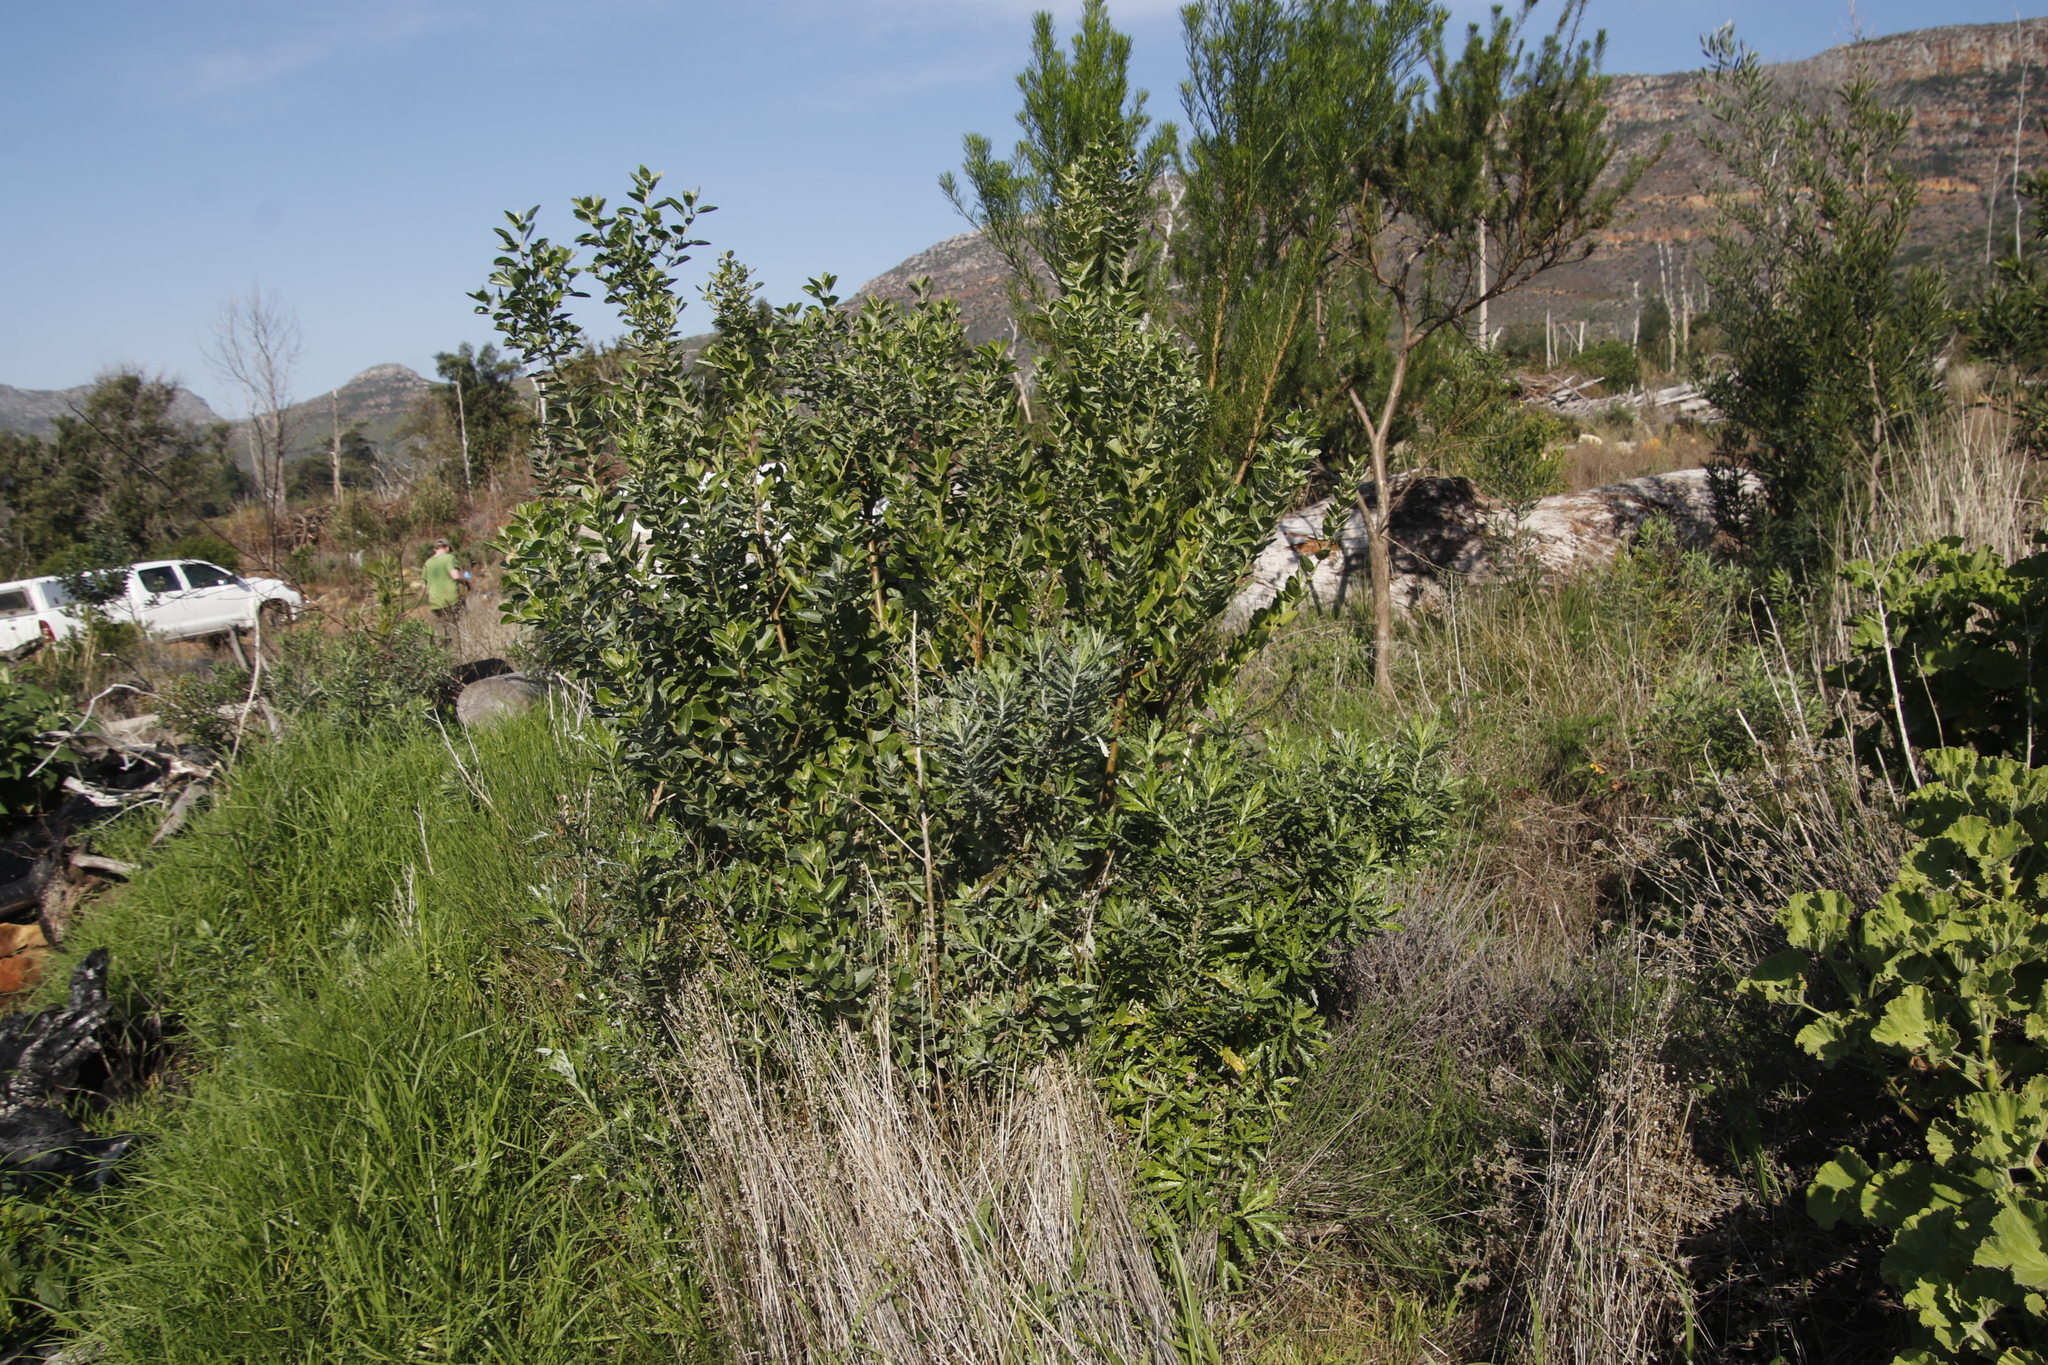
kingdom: Plantae
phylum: Tracheophyta
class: Magnoliopsida
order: Asterales
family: Asteraceae
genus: Senecio
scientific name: Senecio pterophorus
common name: Shoddy ragwort
